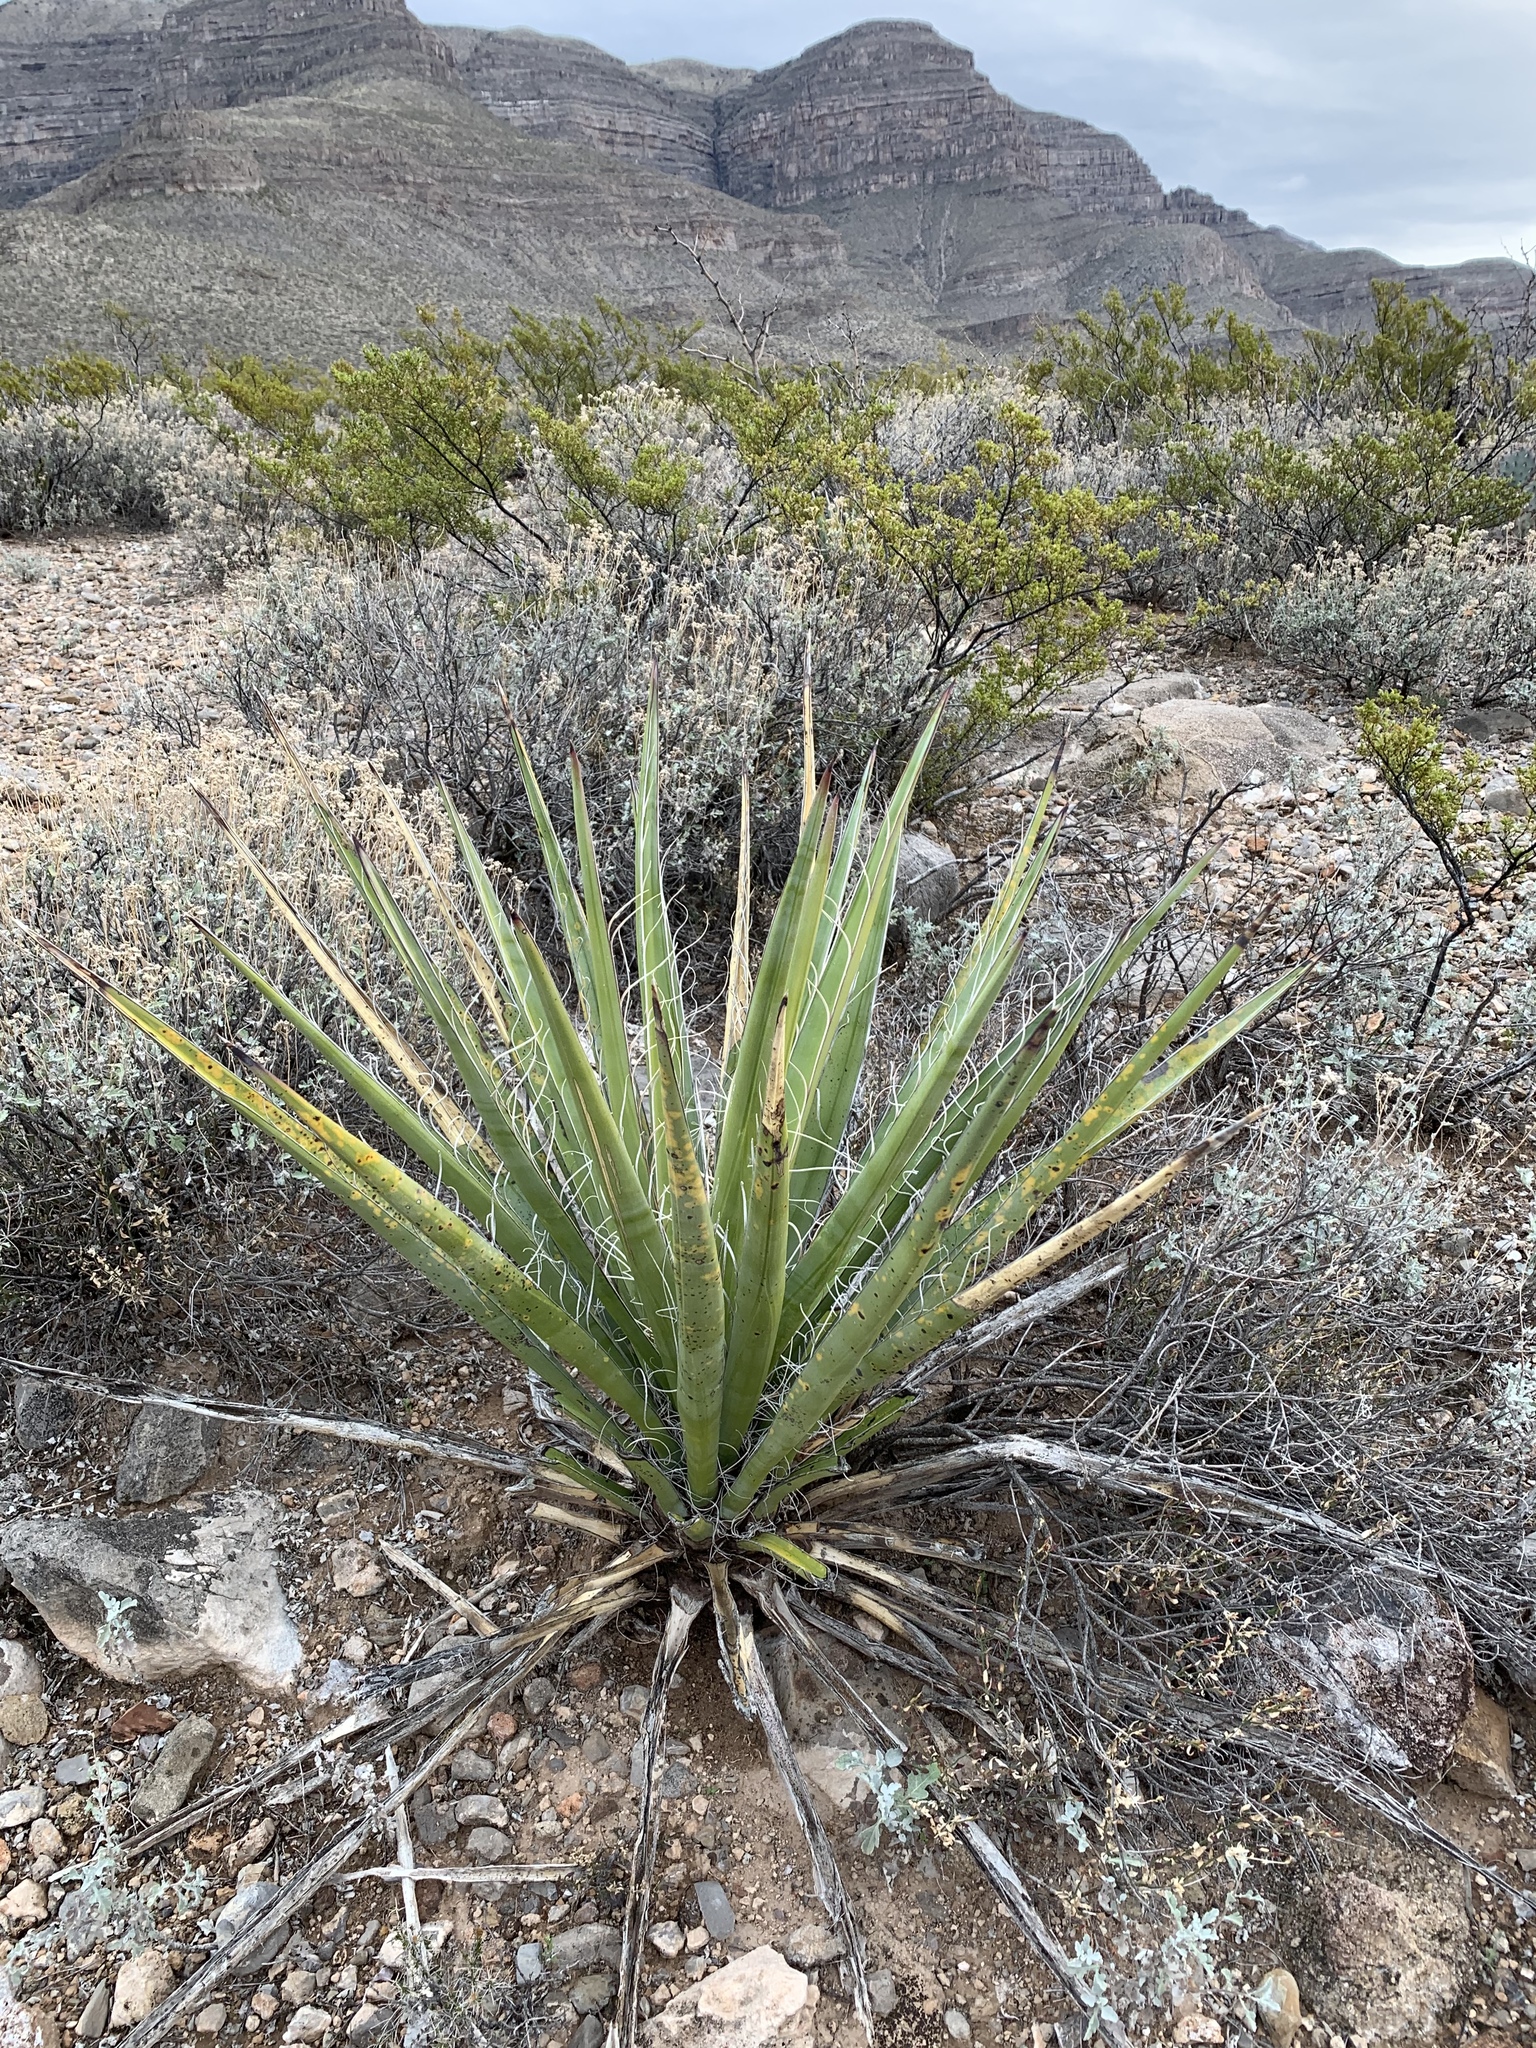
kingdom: Plantae
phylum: Tracheophyta
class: Liliopsida
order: Asparagales
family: Asparagaceae
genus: Yucca
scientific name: Yucca baccata
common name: Banana yucca
